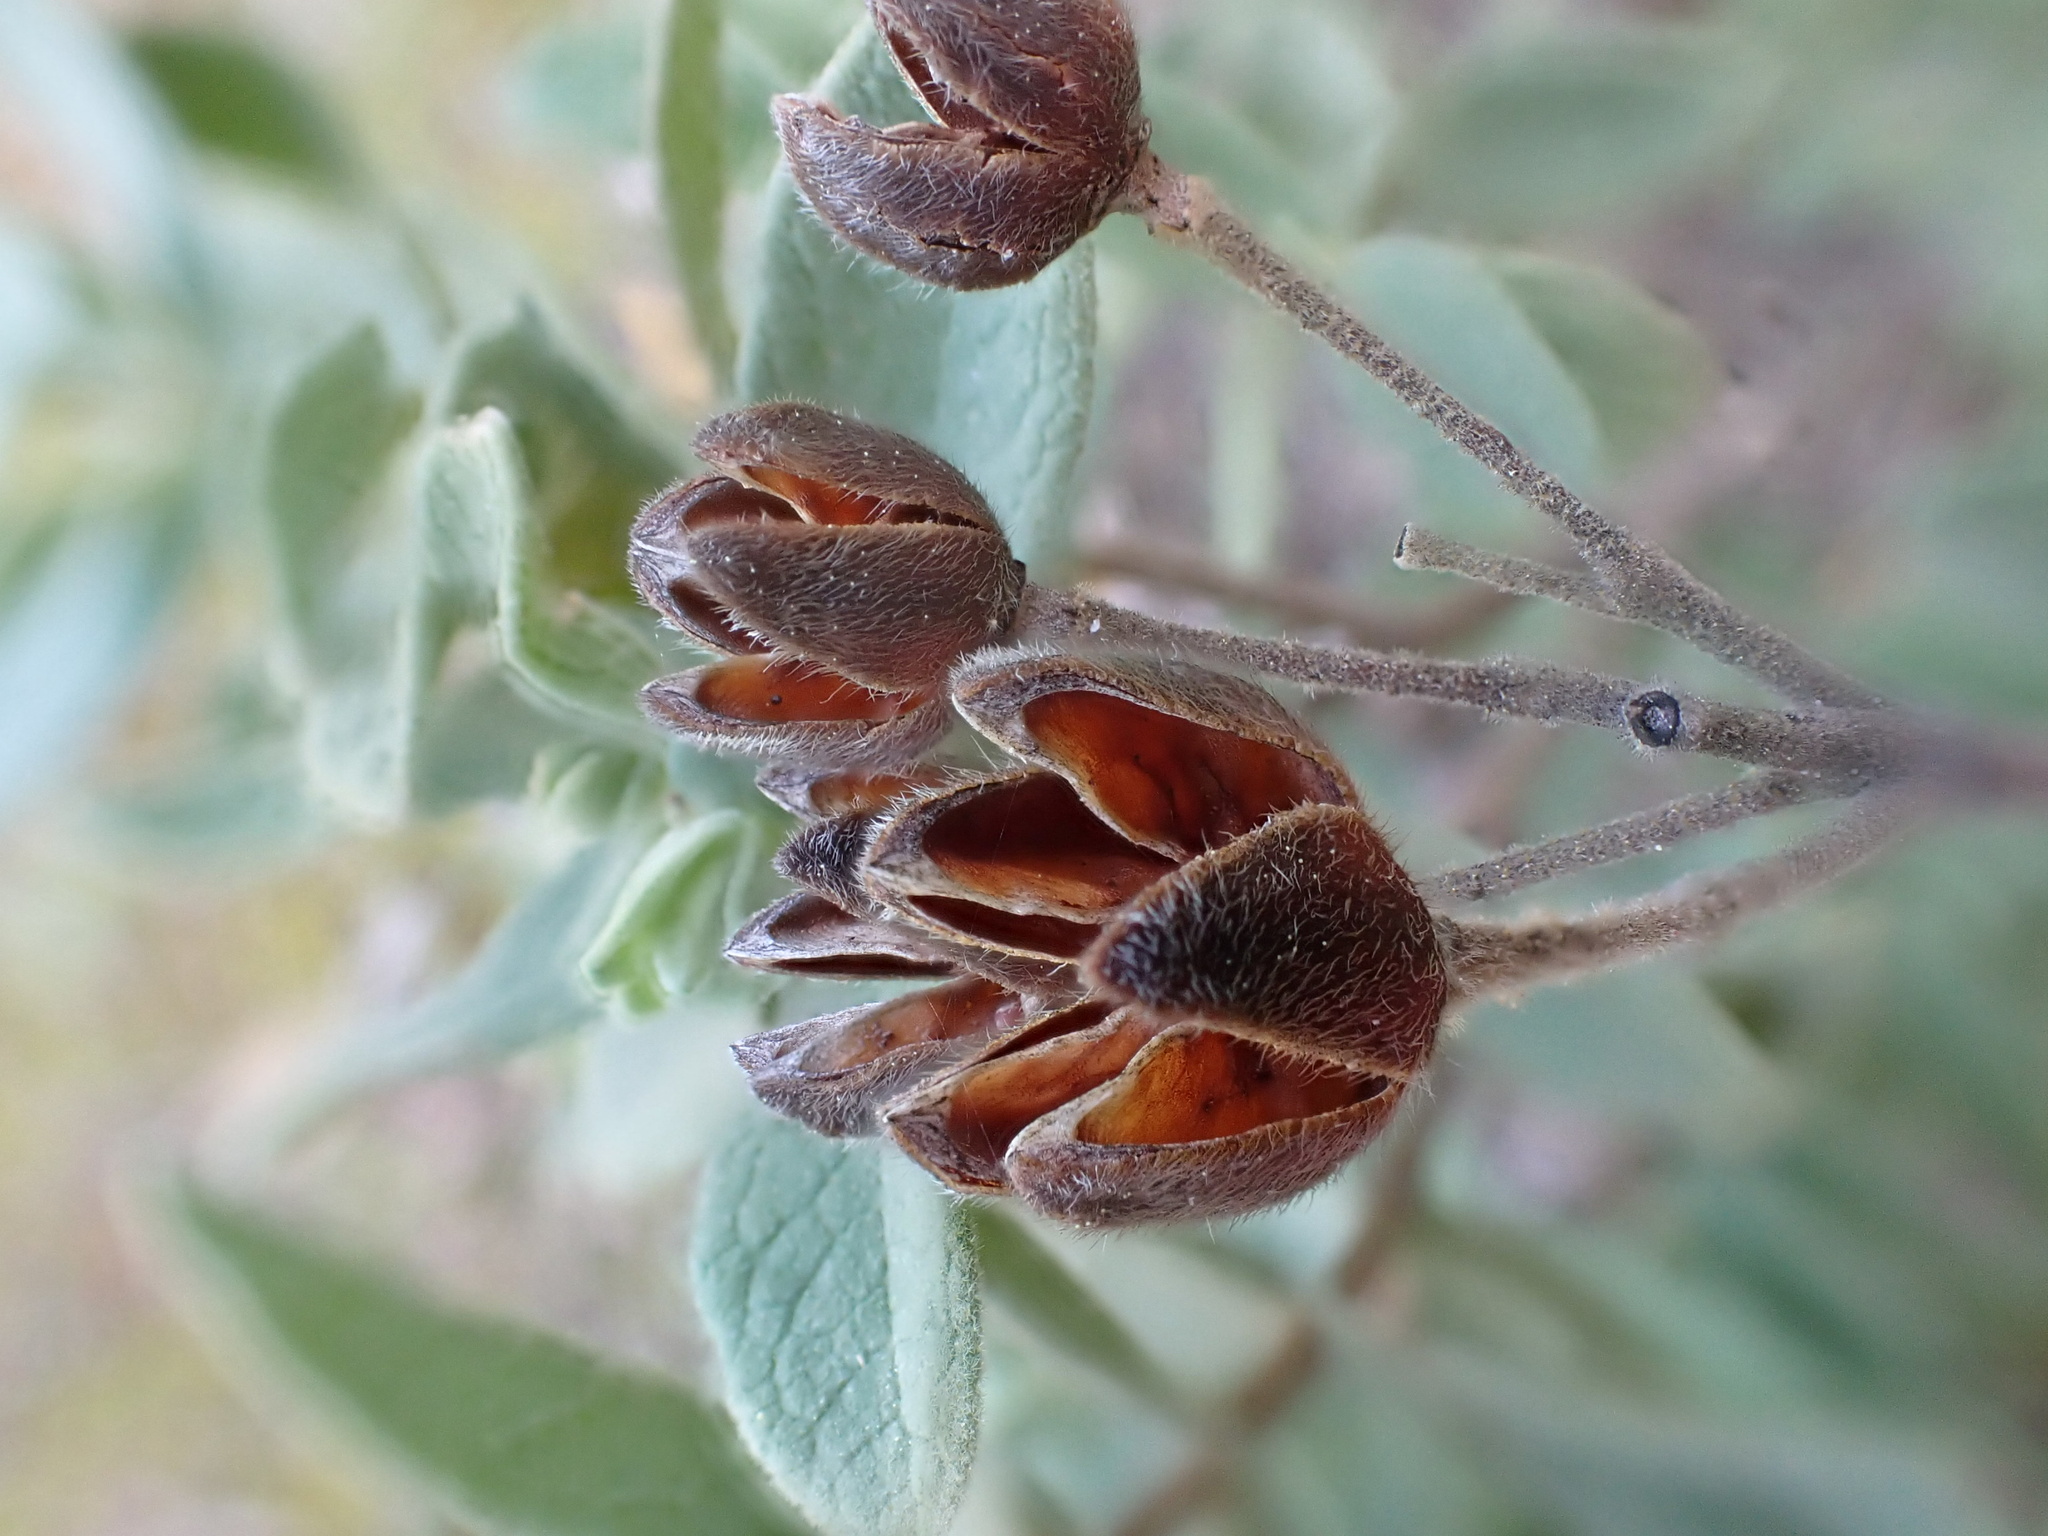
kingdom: Plantae
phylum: Tracheophyta
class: Magnoliopsida
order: Malvales
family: Cistaceae
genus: Cistus
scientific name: Cistus albidus
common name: White-leaf rock-rose
